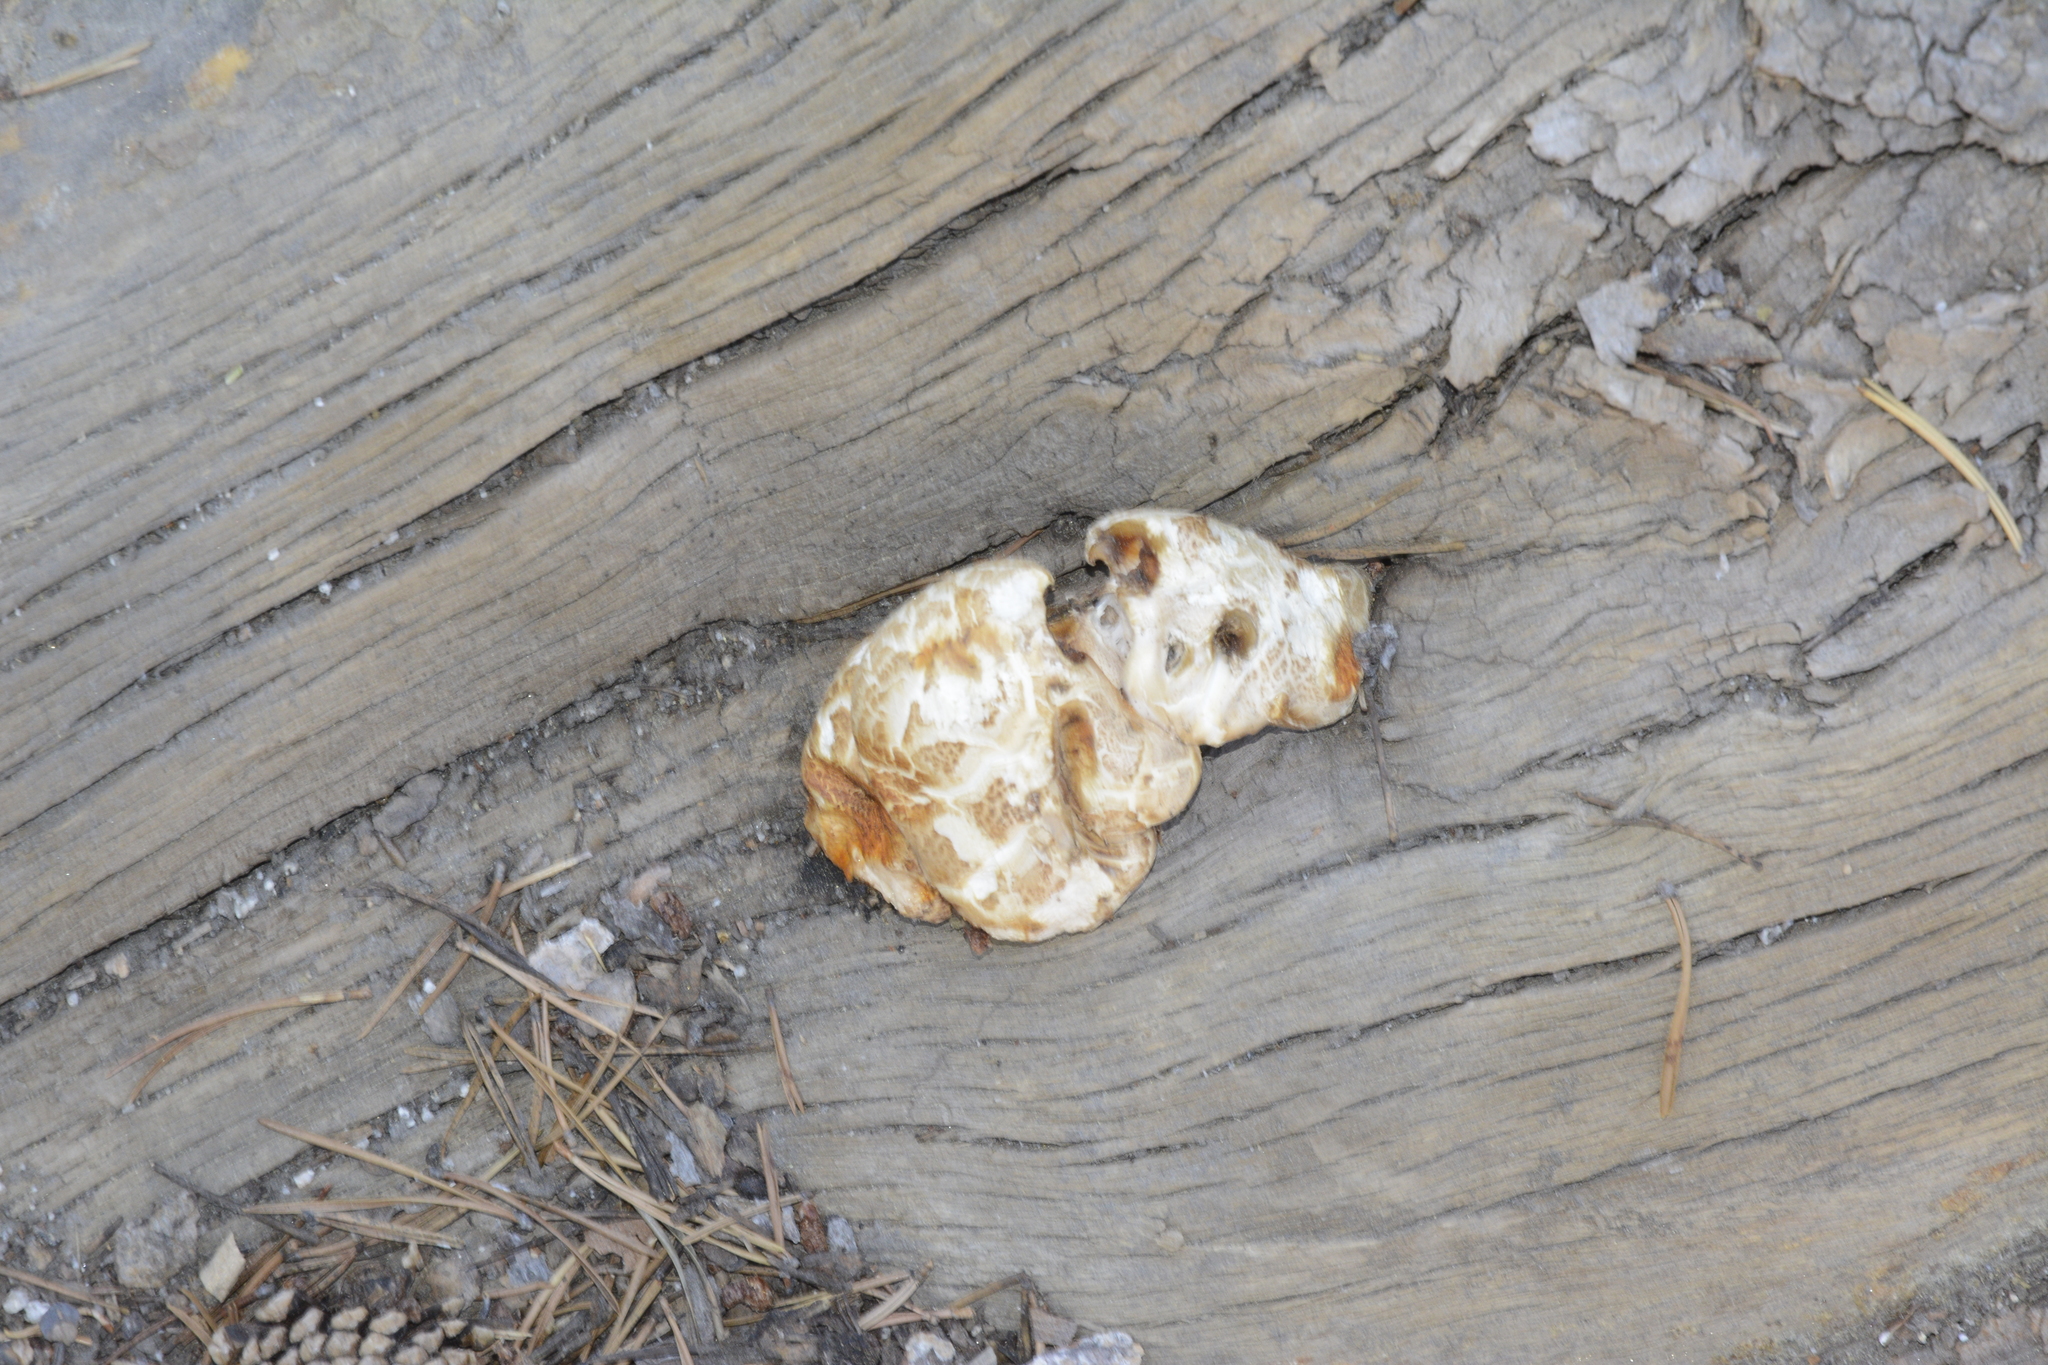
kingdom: Fungi
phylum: Basidiomycota
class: Agaricomycetes
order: Gloeophyllales
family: Gloeophyllaceae
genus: Neolentinus
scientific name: Neolentinus ponderosus
